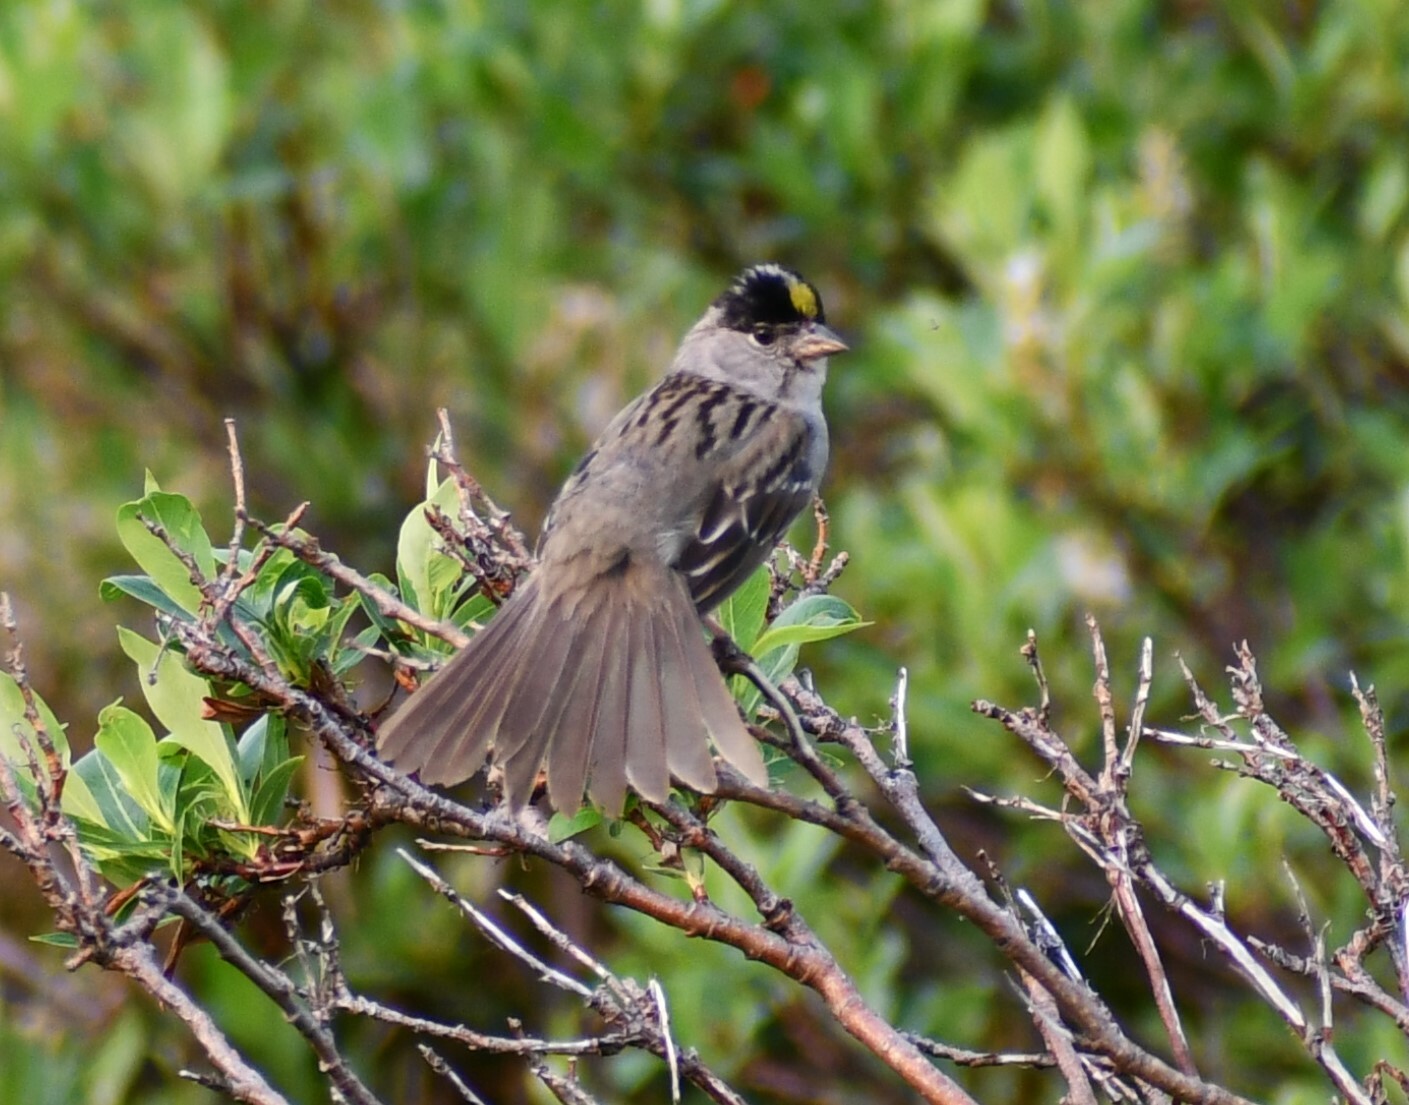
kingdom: Animalia
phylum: Chordata
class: Aves
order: Passeriformes
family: Passerellidae
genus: Zonotrichia
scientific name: Zonotrichia atricapilla
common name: Golden-crowned sparrow
